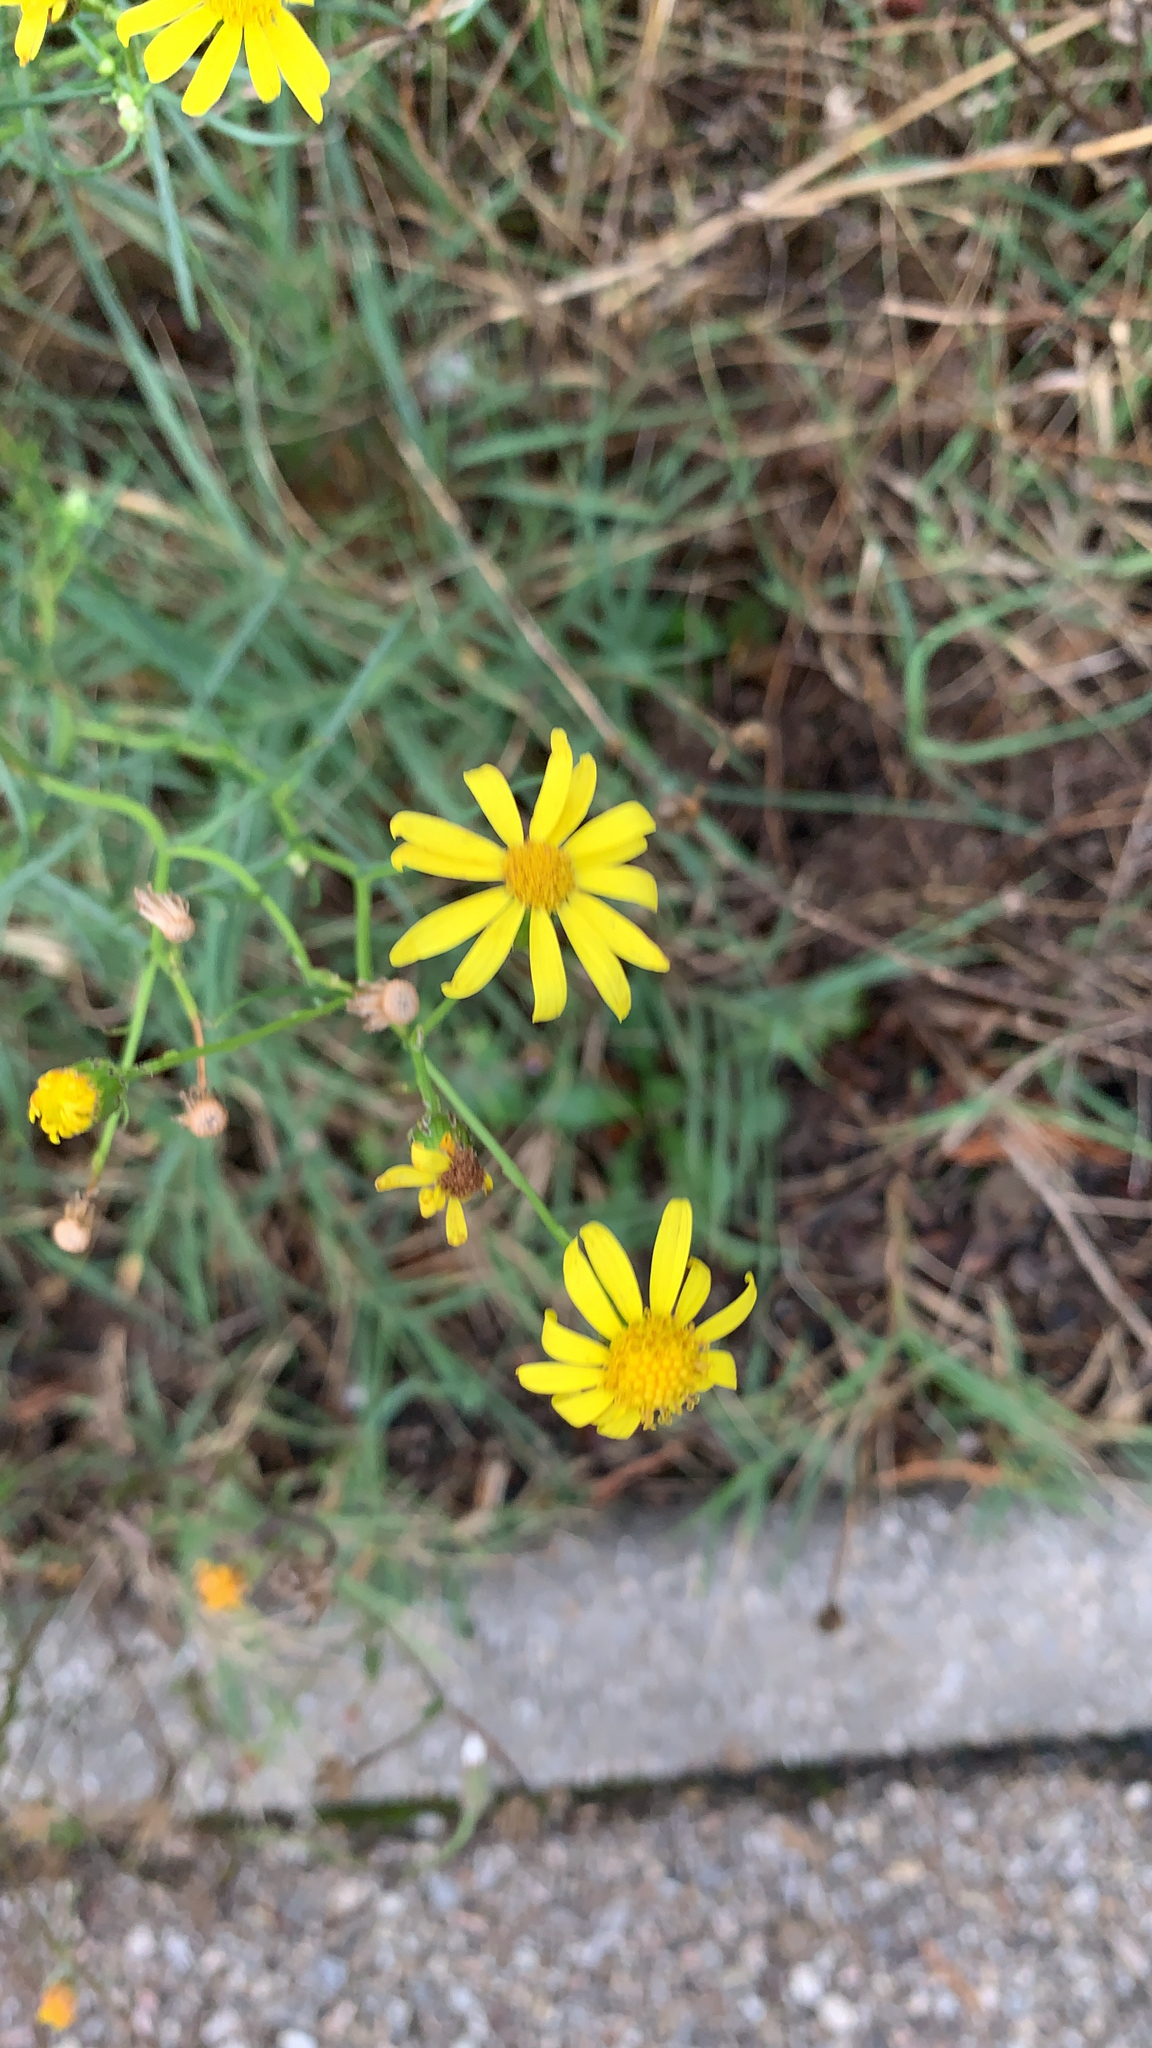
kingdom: Plantae
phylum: Tracheophyta
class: Magnoliopsida
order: Asterales
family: Asteraceae
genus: Senecio
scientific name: Senecio inaequidens
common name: Narrow-leaved ragwort
